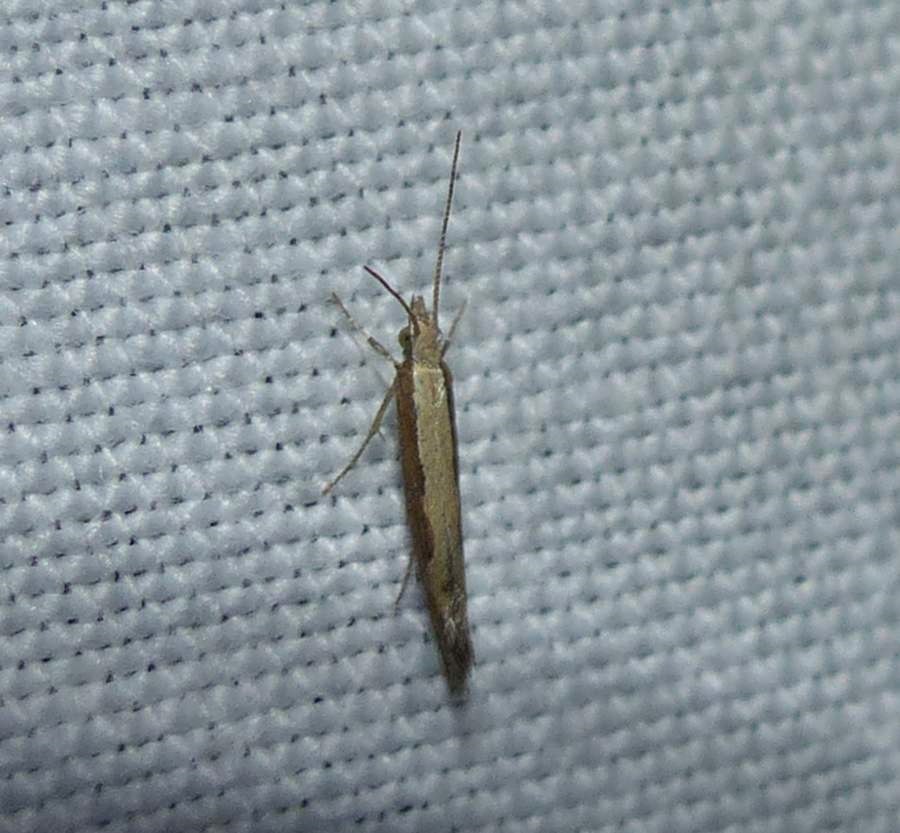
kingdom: Animalia
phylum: Arthropoda
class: Insecta
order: Lepidoptera
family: Plutellidae
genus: Plutella
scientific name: Plutella xylostella
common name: Diamond-back moth
